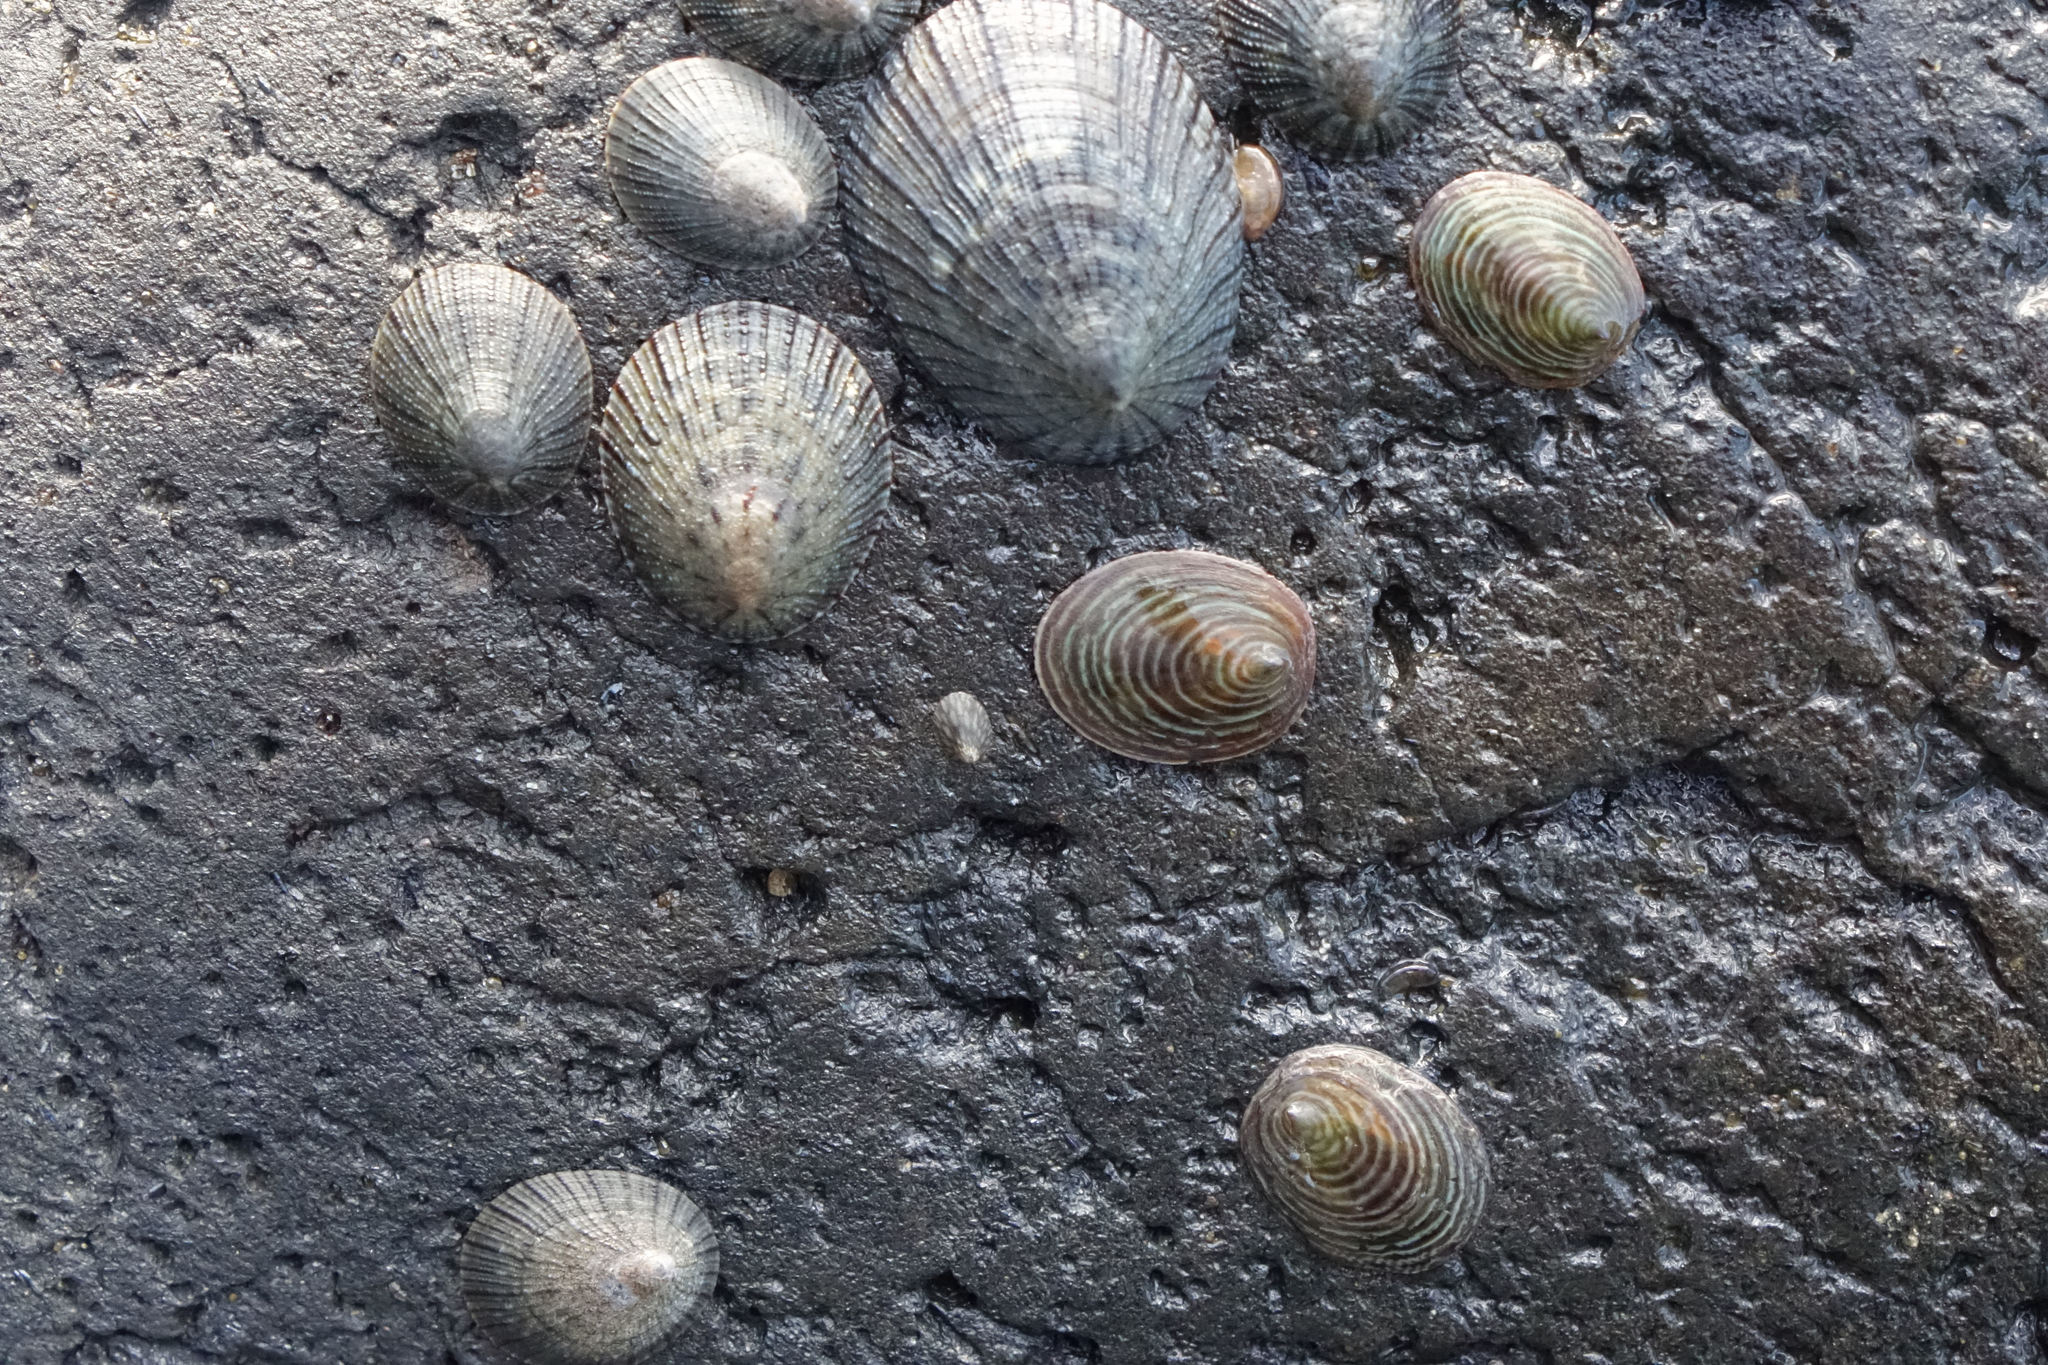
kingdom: Animalia
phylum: Mollusca
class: Gastropoda
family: Lottiidae
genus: Atalacmea
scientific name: Atalacmea fragilis
